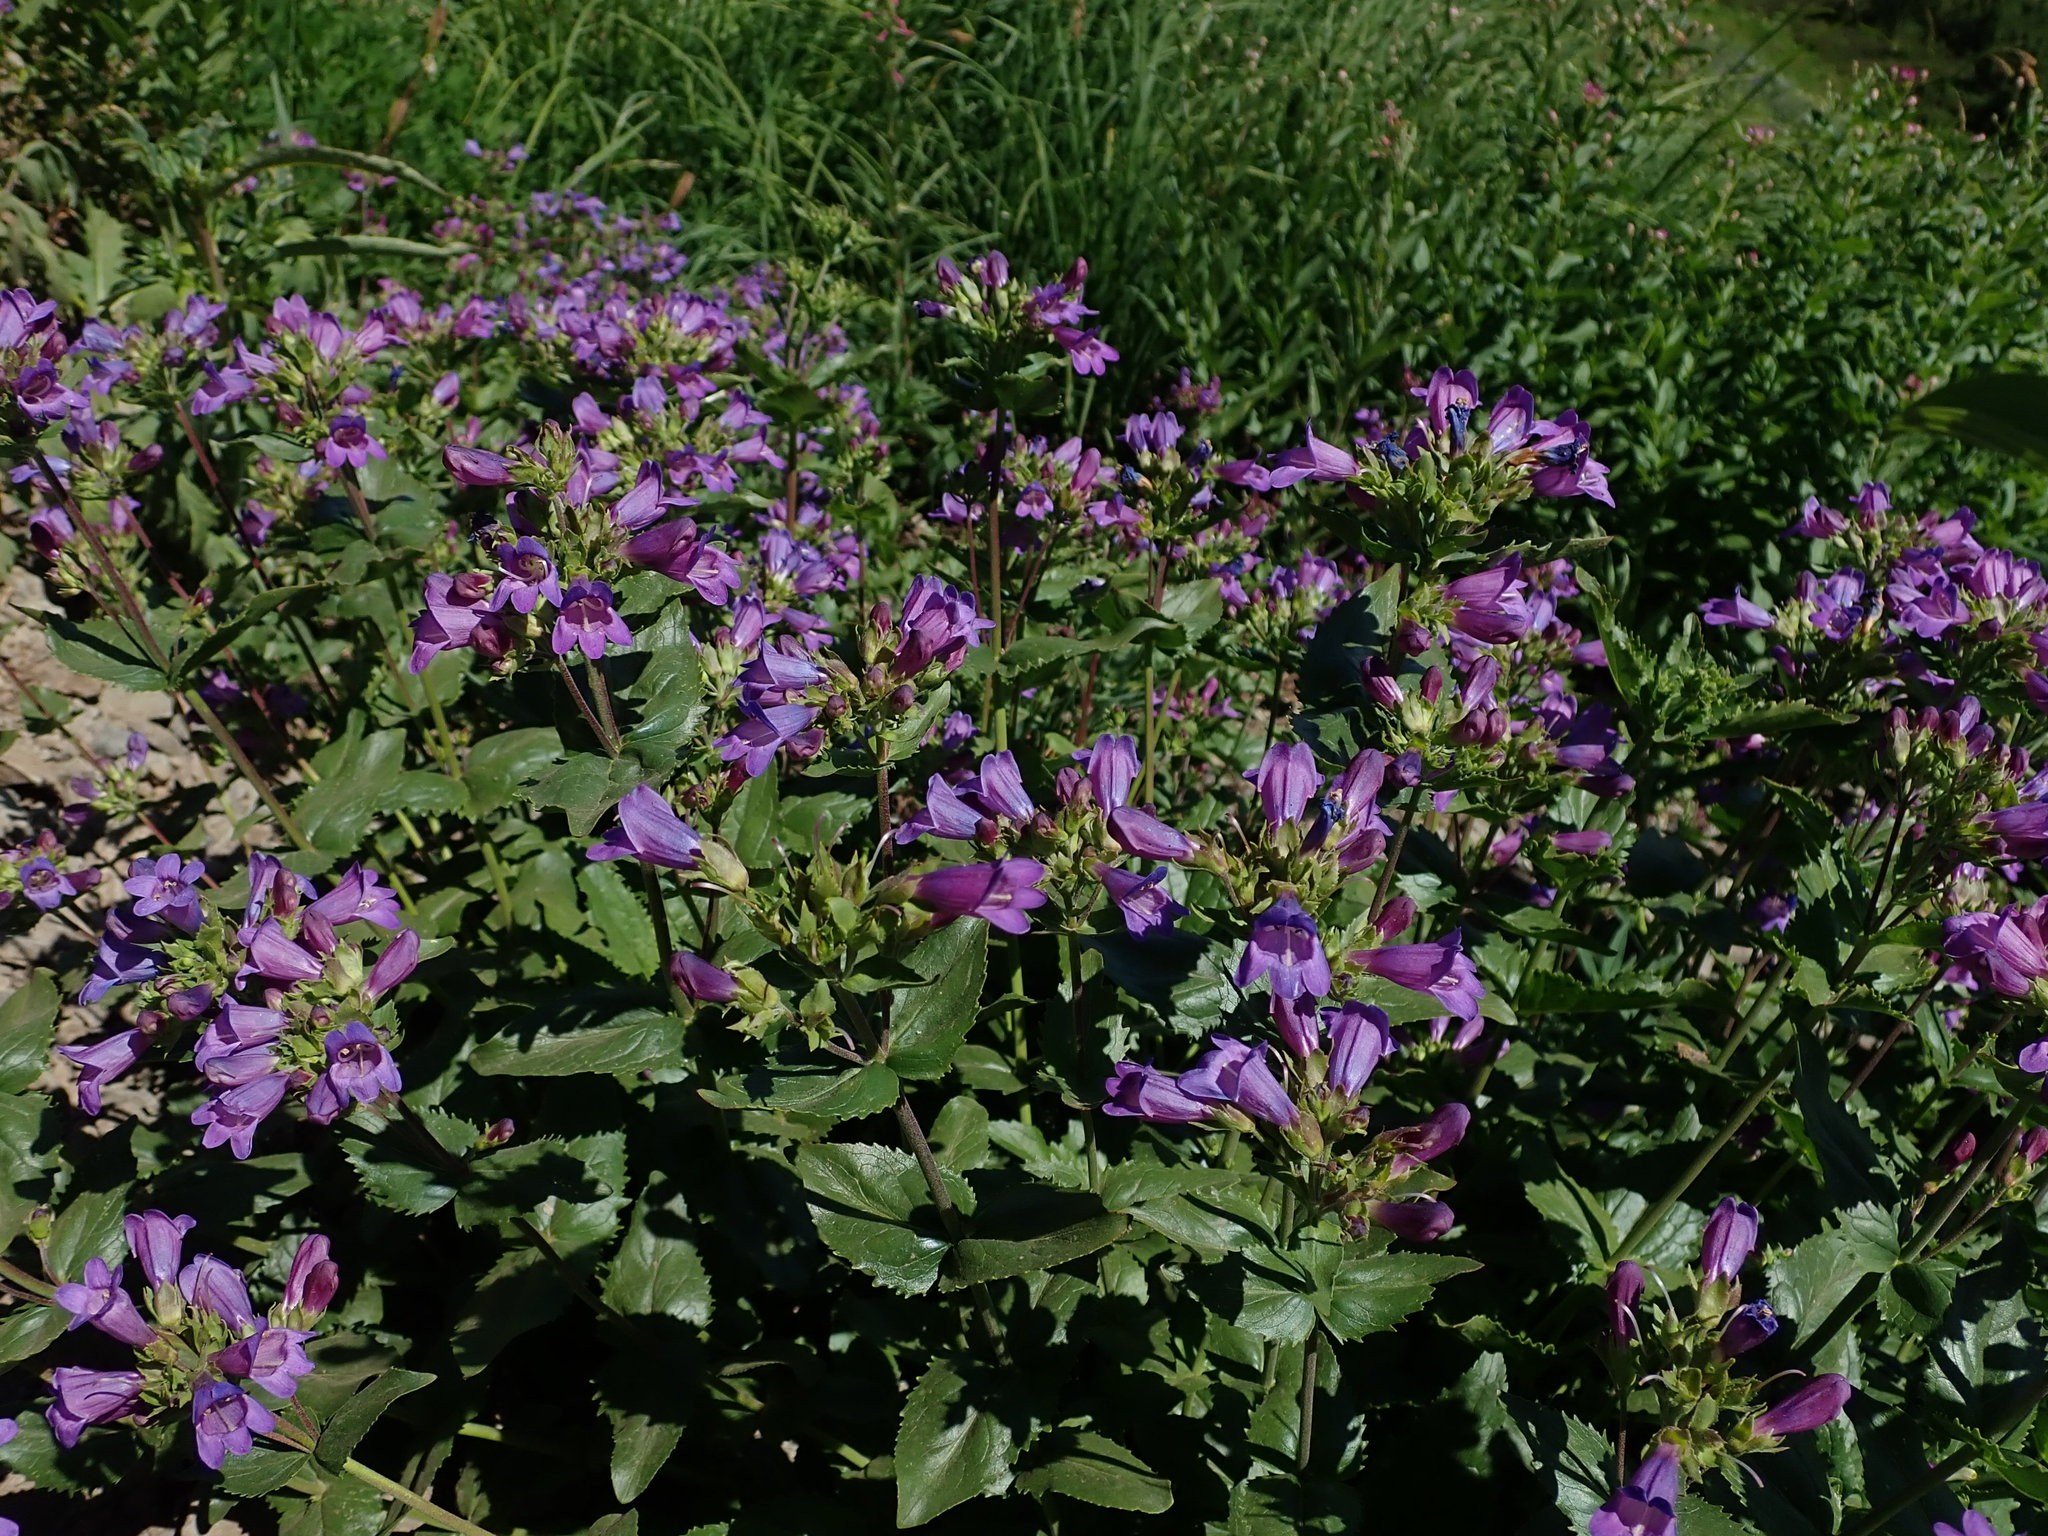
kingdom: Plantae
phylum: Tracheophyta
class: Magnoliopsida
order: Lamiales
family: Plantaginaceae
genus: Penstemon
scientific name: Penstemon serrulatus
